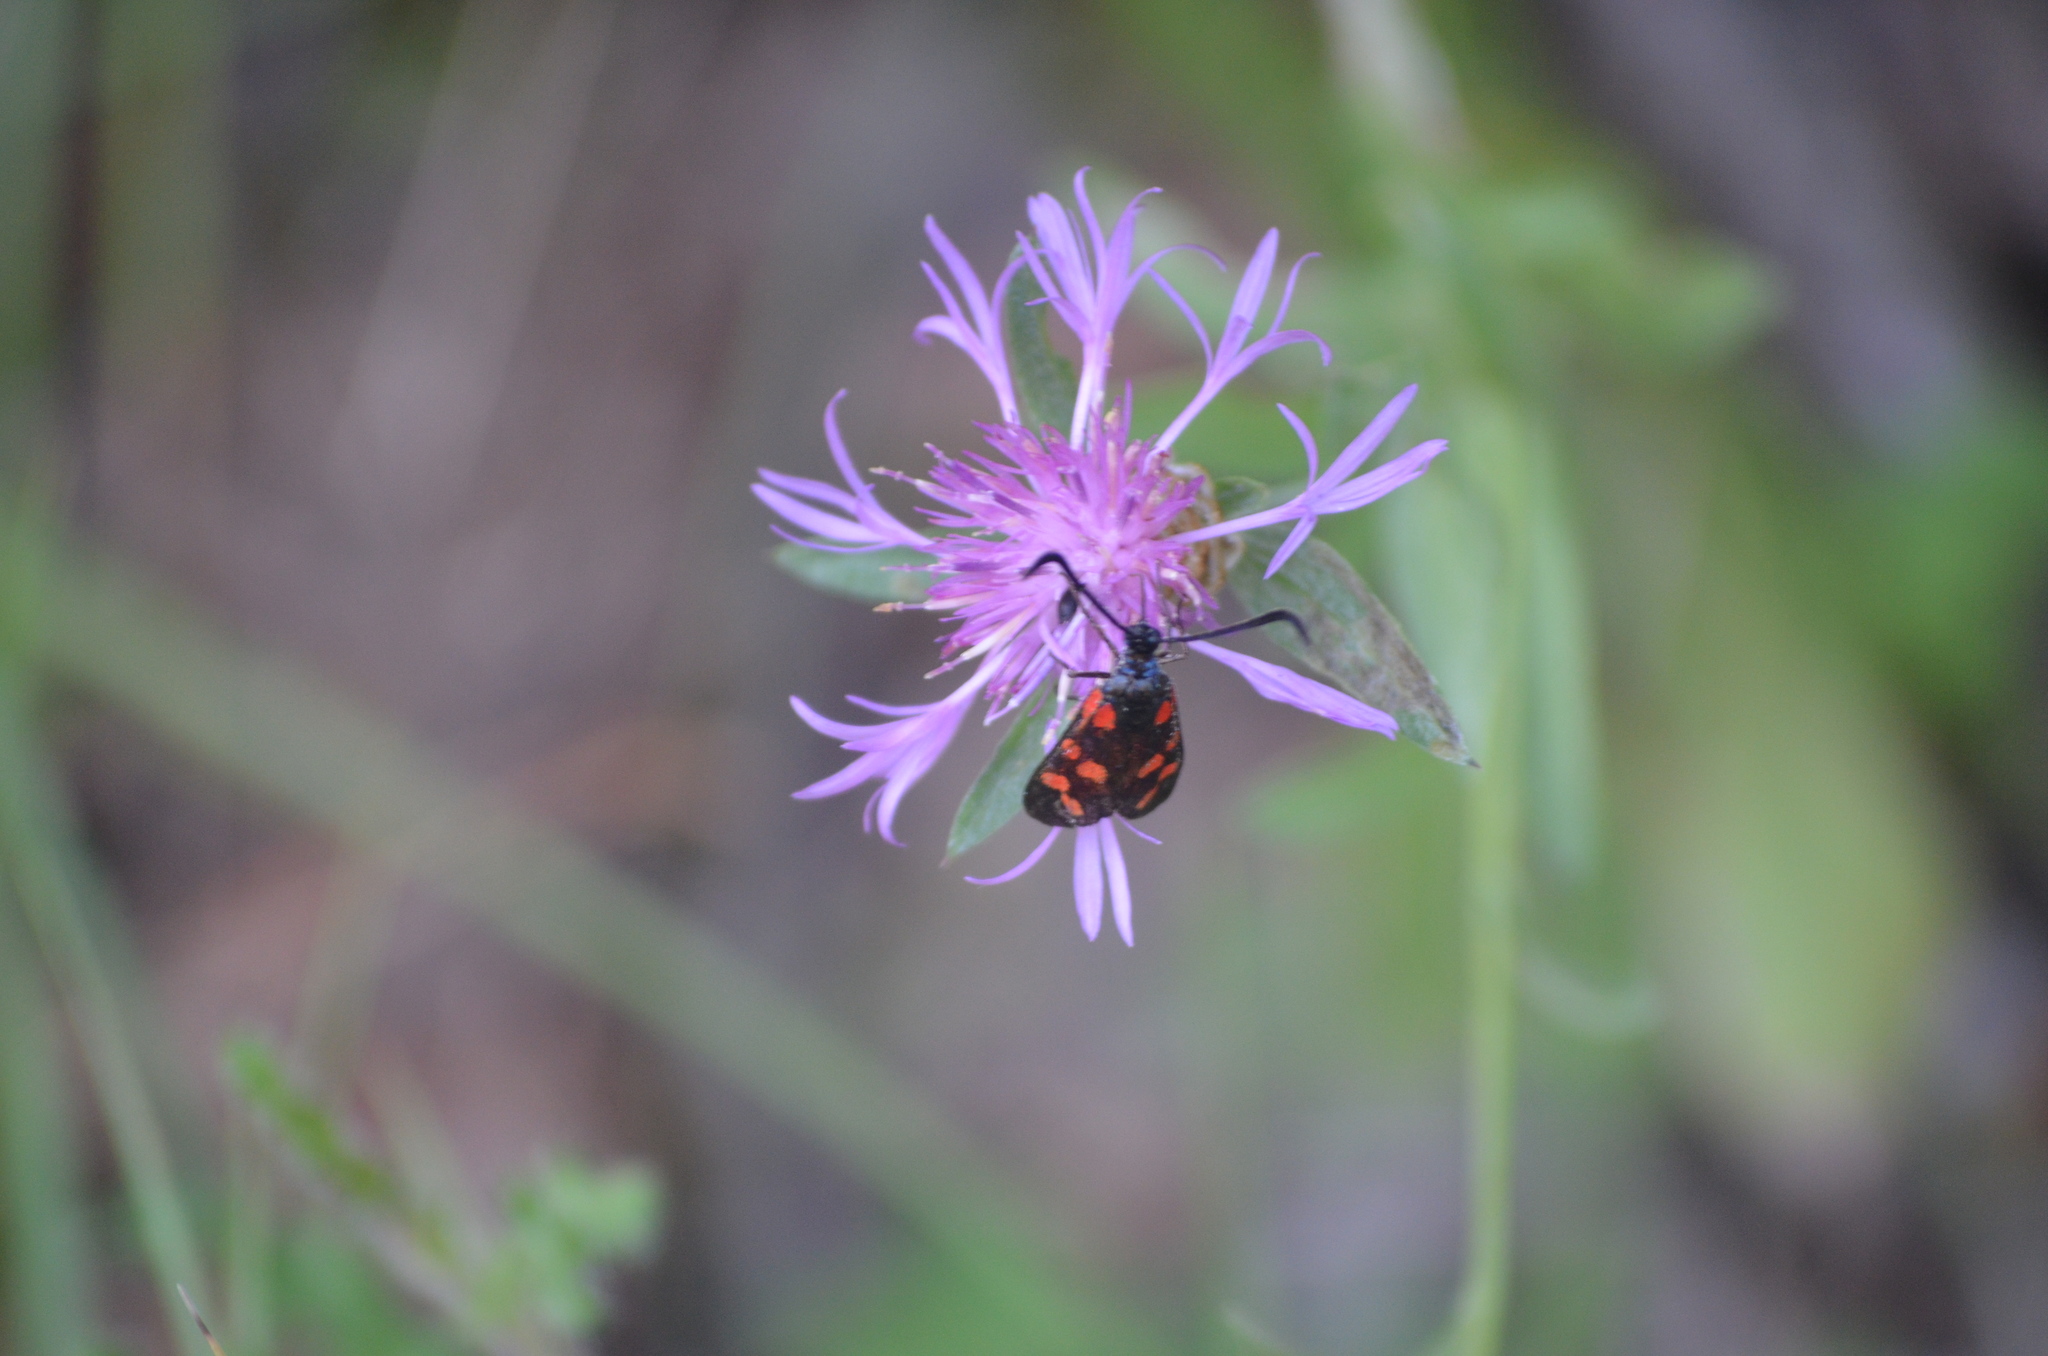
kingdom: Animalia
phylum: Arthropoda
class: Insecta
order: Lepidoptera
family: Zygaenidae
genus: Zygaena
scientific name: Zygaena filipendulae
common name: Six-spot burnet
